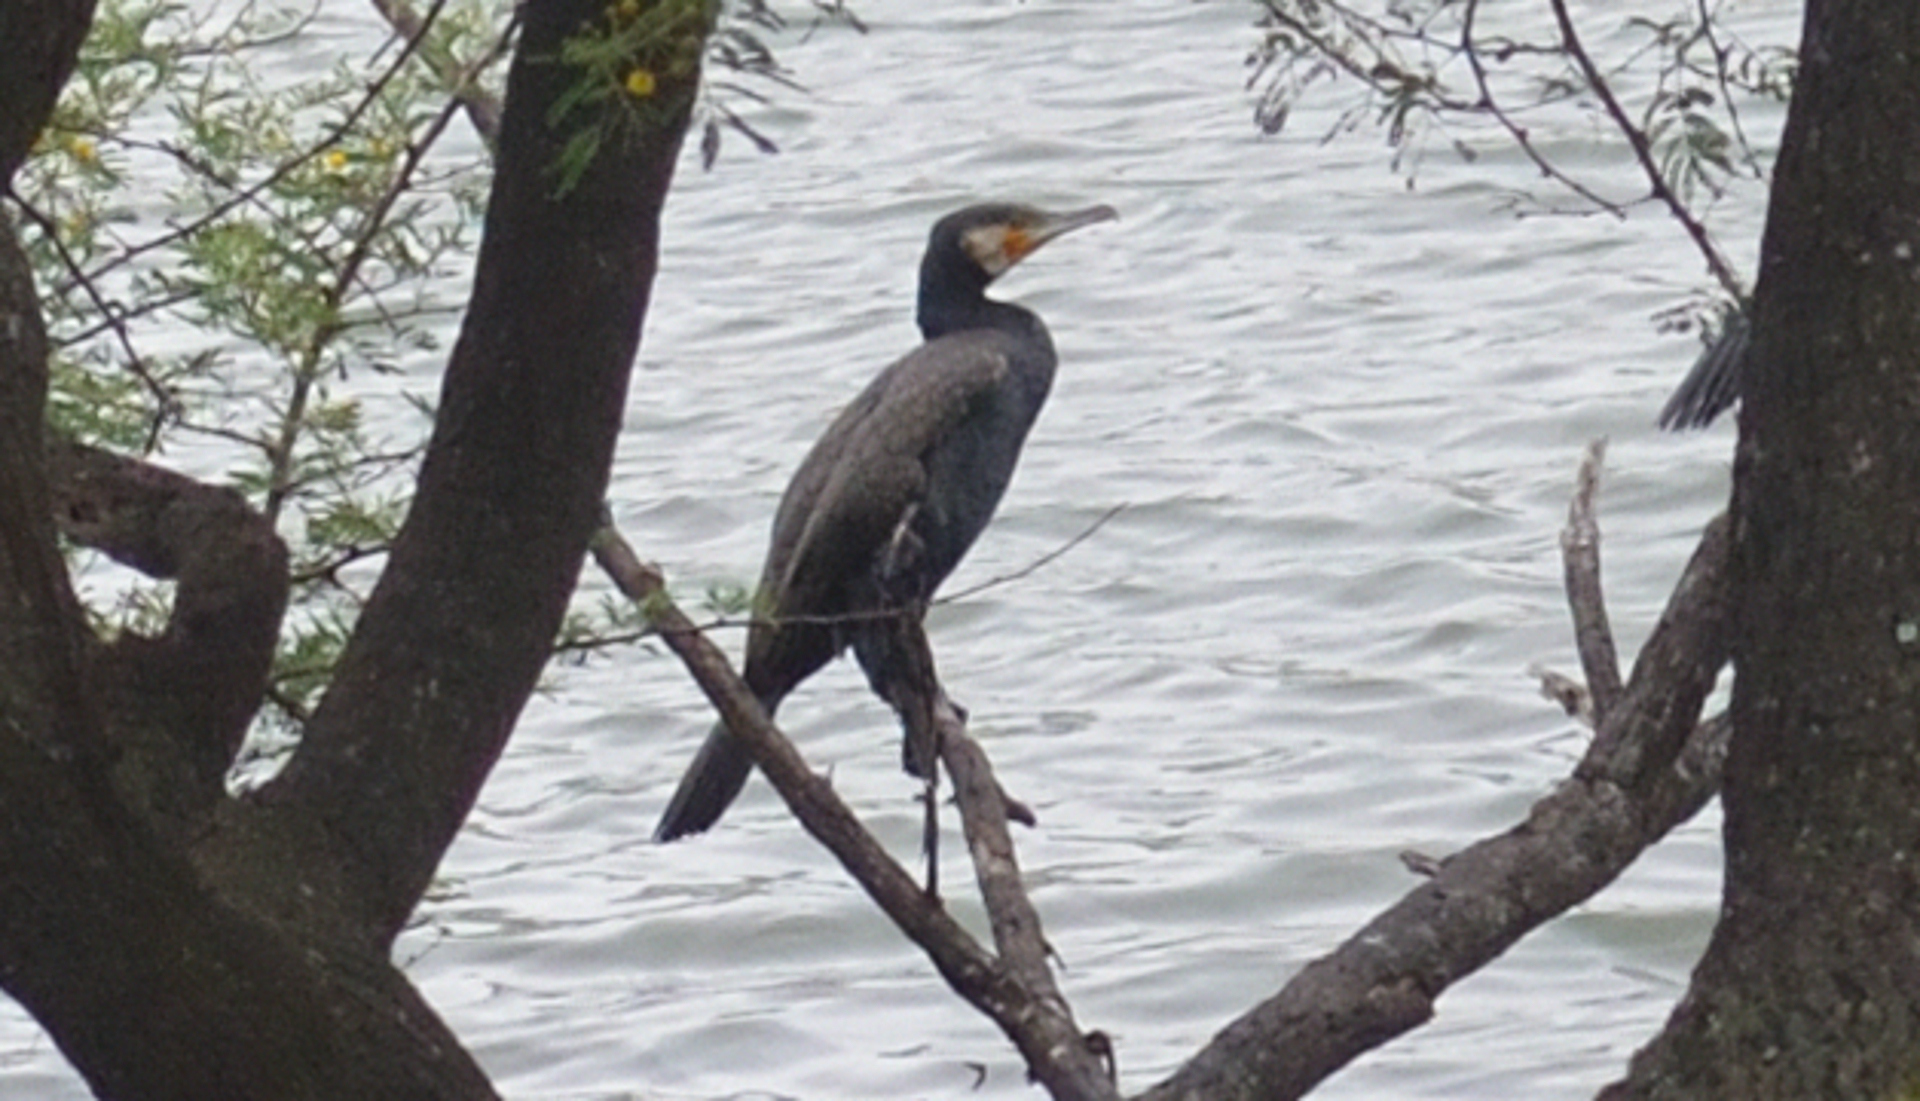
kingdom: Animalia
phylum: Chordata
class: Aves
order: Suliformes
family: Phalacrocoracidae
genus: Phalacrocorax
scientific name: Phalacrocorax carbo
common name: Great cormorant
